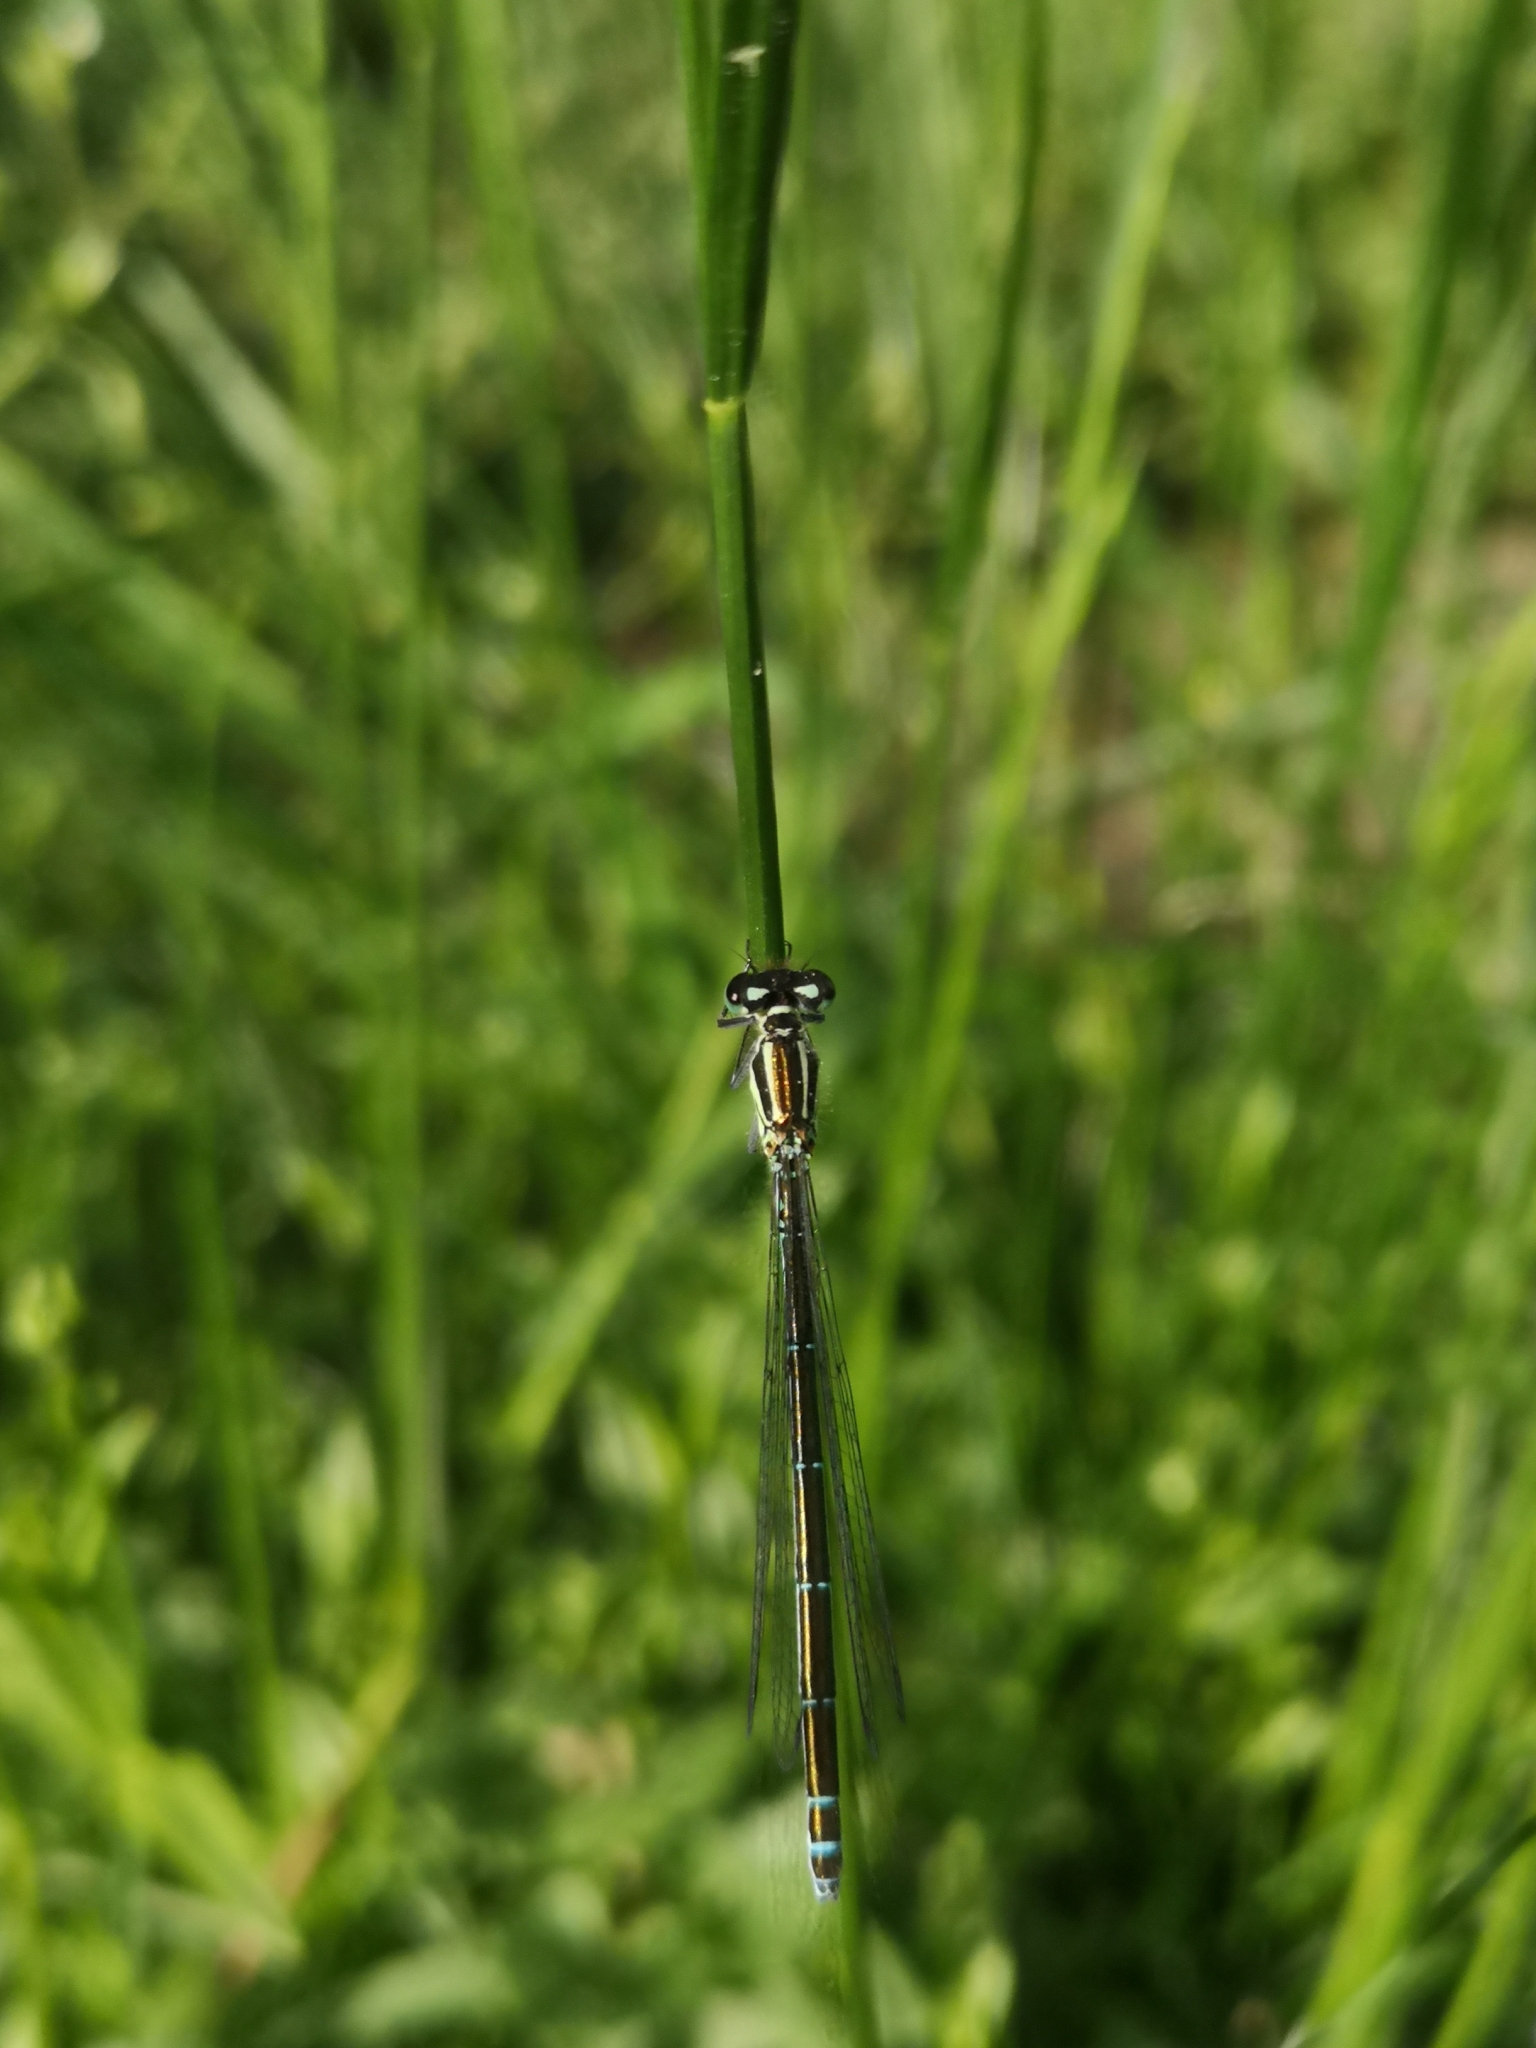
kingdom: Animalia
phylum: Arthropoda
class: Insecta
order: Odonata
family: Coenagrionidae
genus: Coenagrion
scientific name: Coenagrion puella
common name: Azure damselfly
